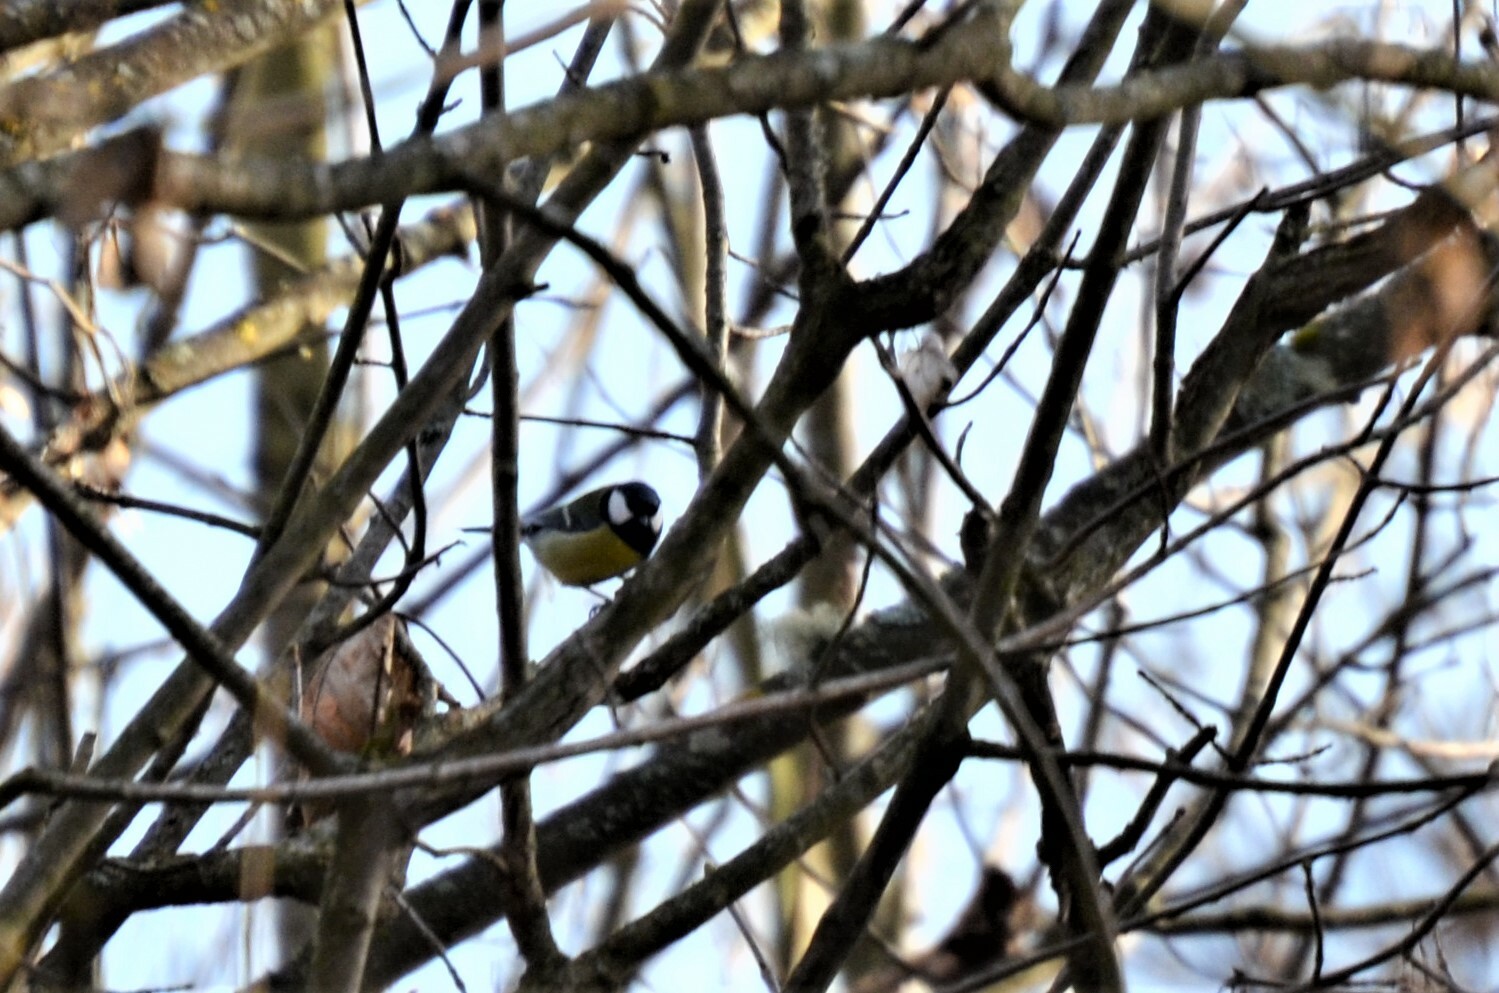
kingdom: Animalia
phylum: Chordata
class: Aves
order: Passeriformes
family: Paridae
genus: Parus
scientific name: Parus major
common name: Great tit
